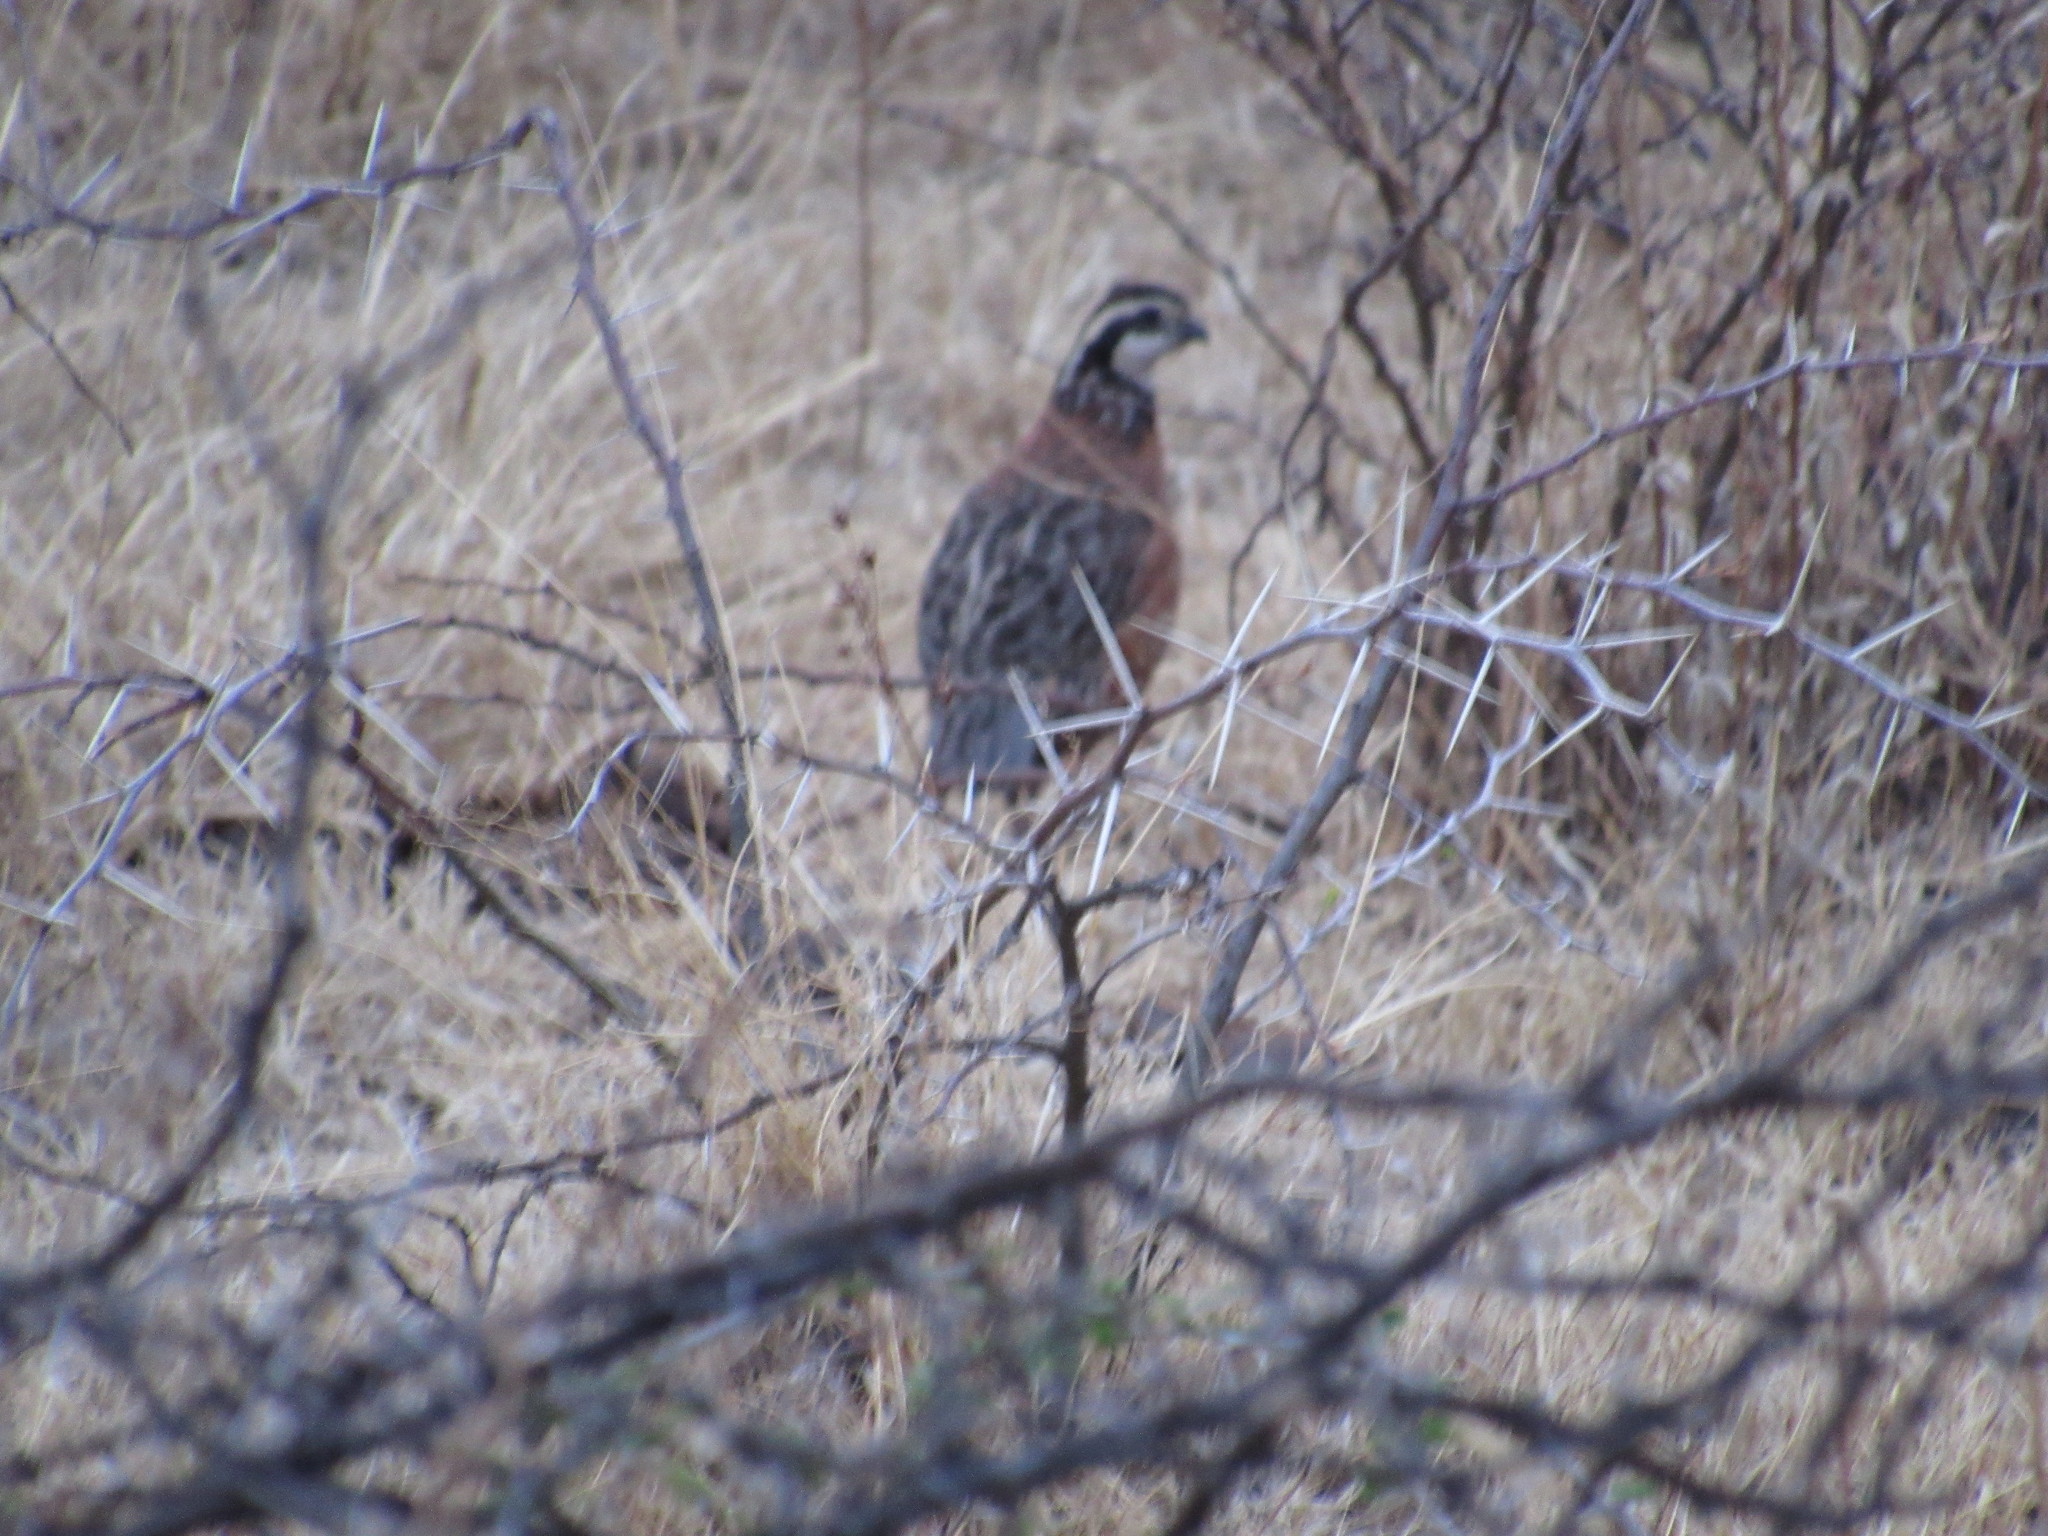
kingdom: Animalia
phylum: Chordata
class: Aves
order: Galliformes
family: Odontophoridae
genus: Colinus
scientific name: Colinus virginianus
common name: Northern bobwhite
